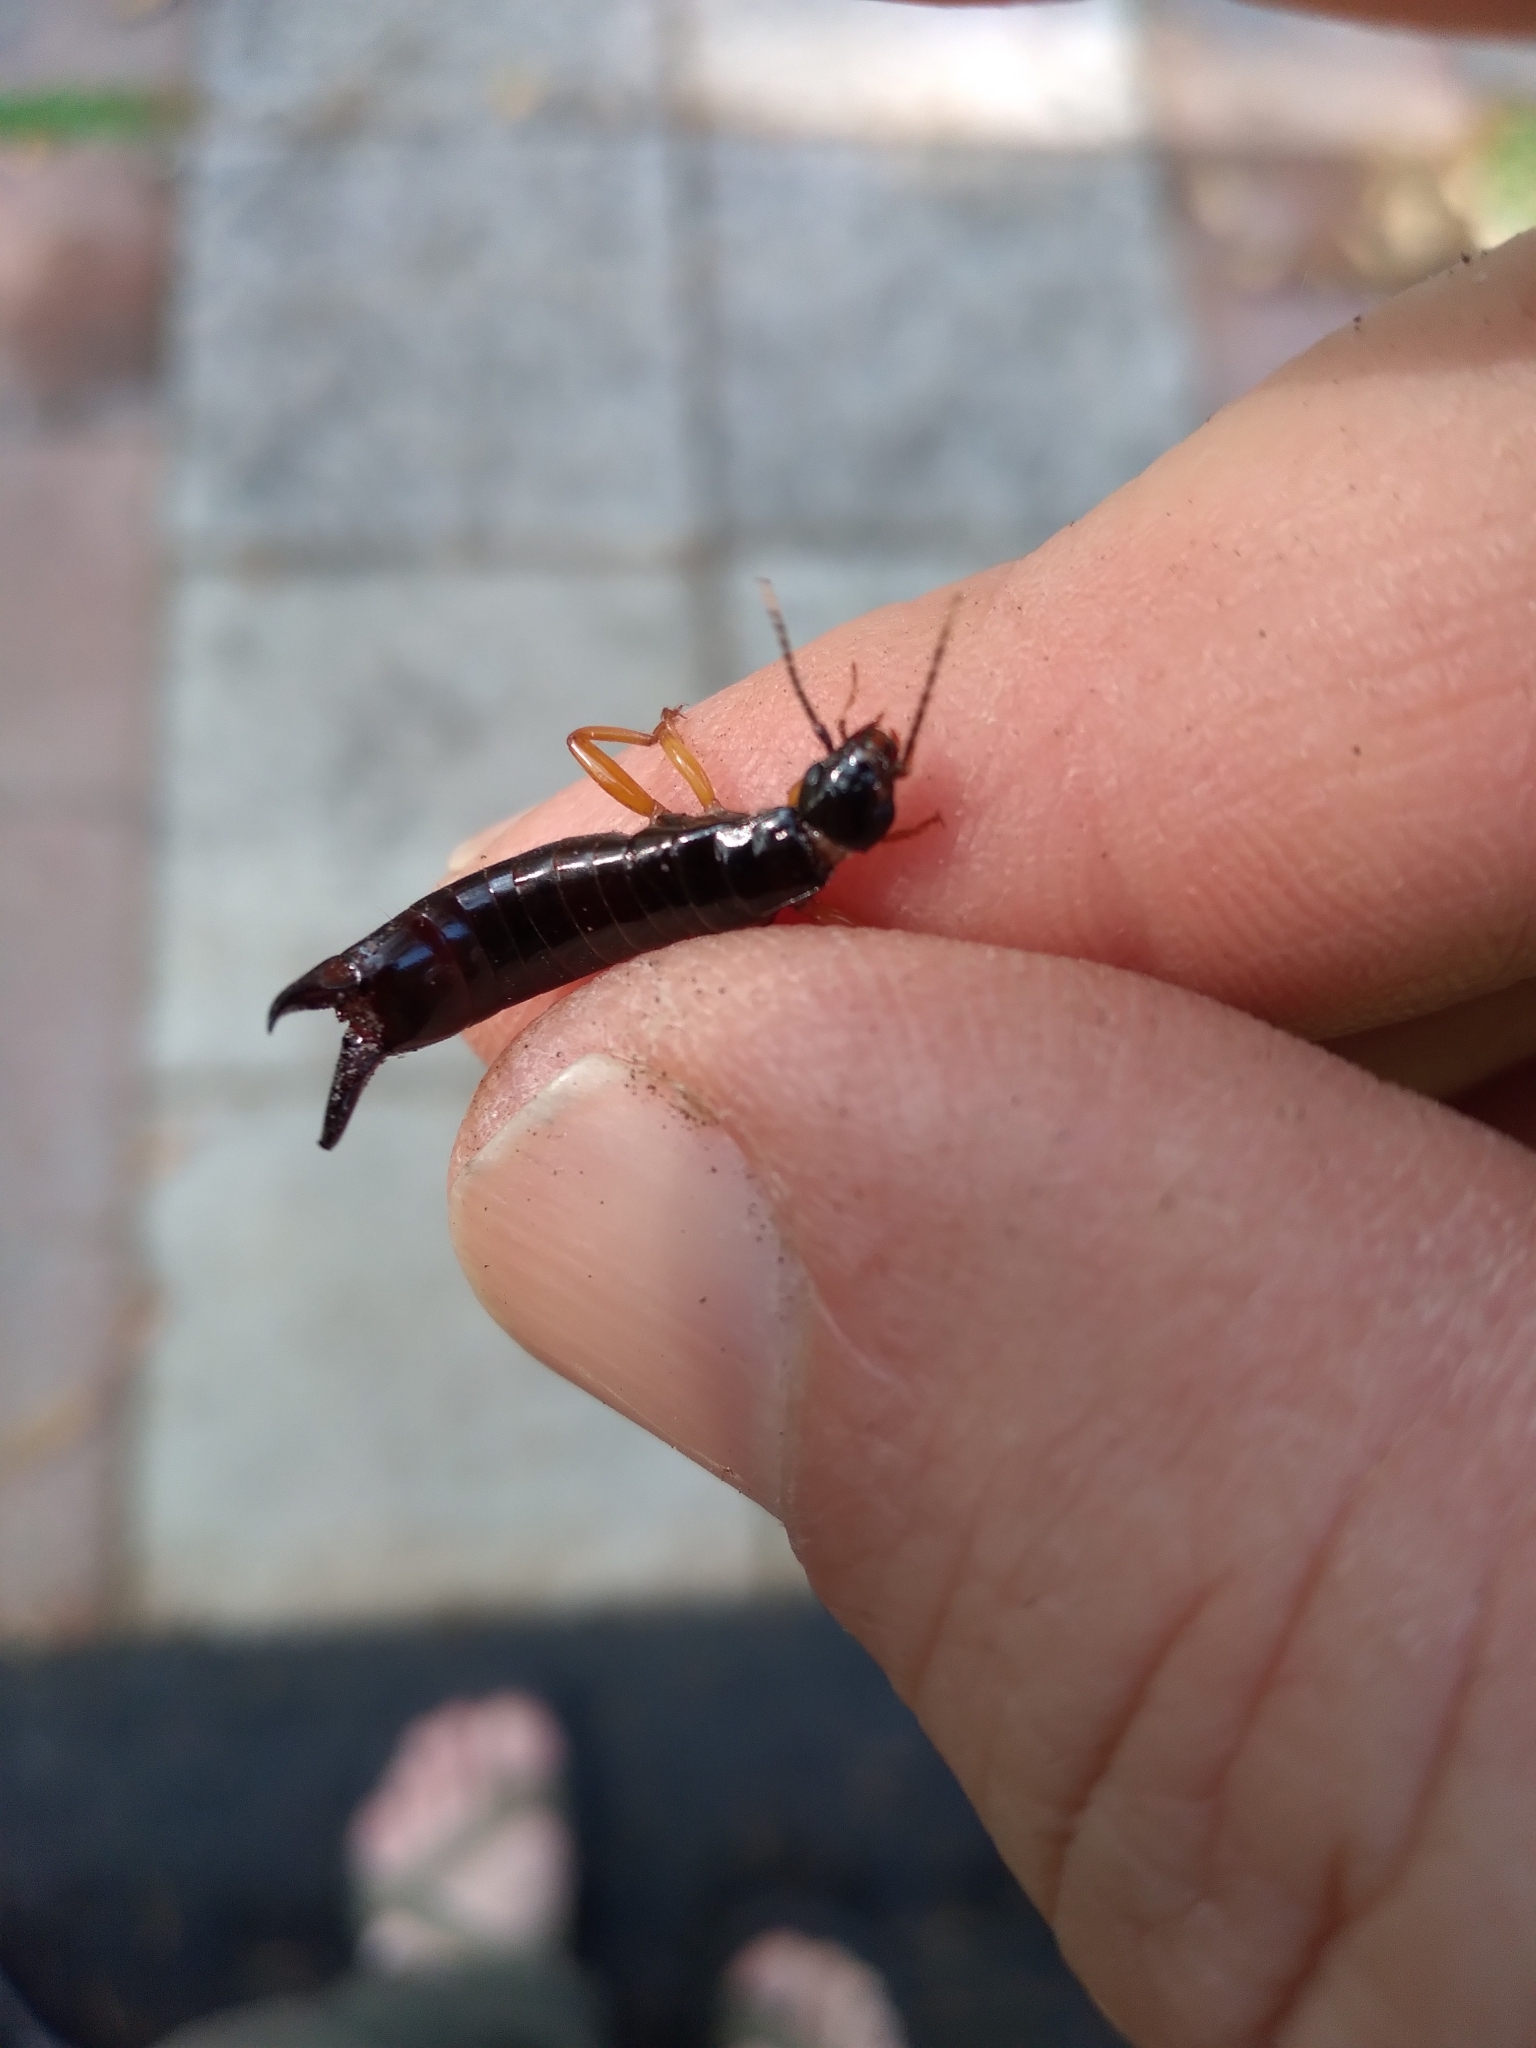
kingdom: Animalia
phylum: Arthropoda
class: Insecta
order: Dermaptera
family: Anisolabididae
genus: Euborellia
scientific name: Euborellia arcanum
